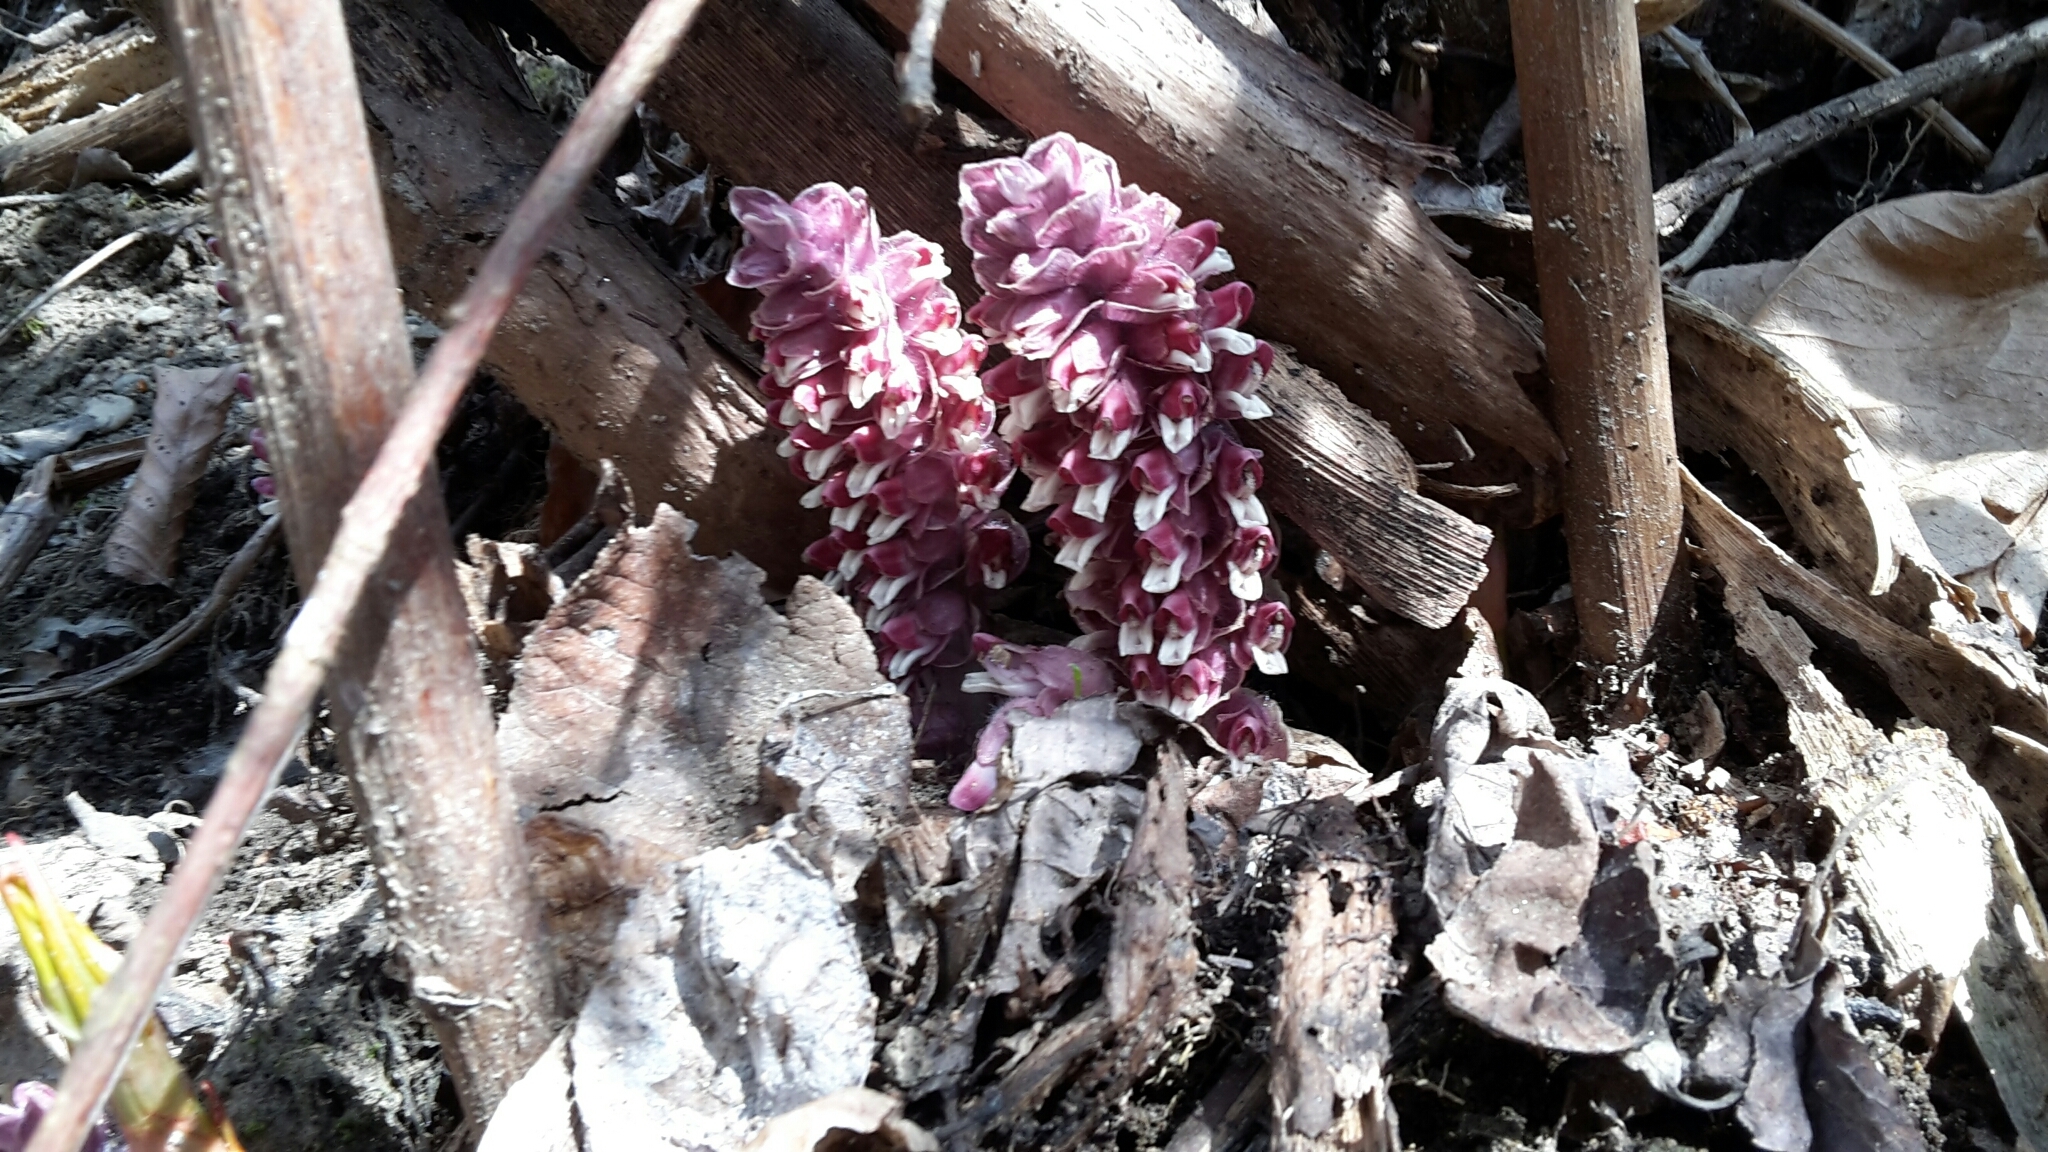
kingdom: Plantae
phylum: Tracheophyta
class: Magnoliopsida
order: Lamiales
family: Orobanchaceae
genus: Lathraea
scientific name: Lathraea squamaria
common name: Toothwort
